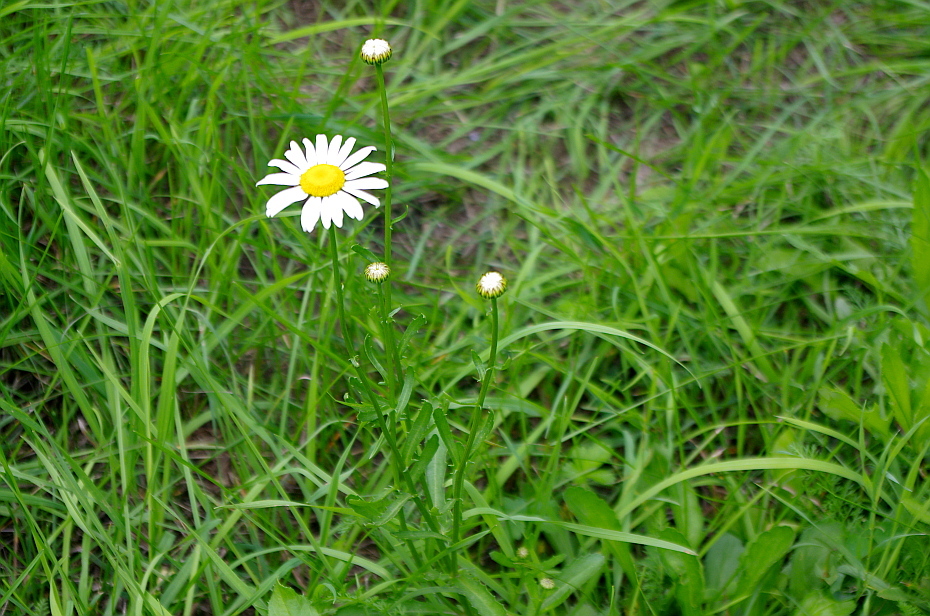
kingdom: Plantae
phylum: Tracheophyta
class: Magnoliopsida
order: Asterales
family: Asteraceae
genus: Leucanthemum
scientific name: Leucanthemum vulgare
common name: Oxeye daisy
